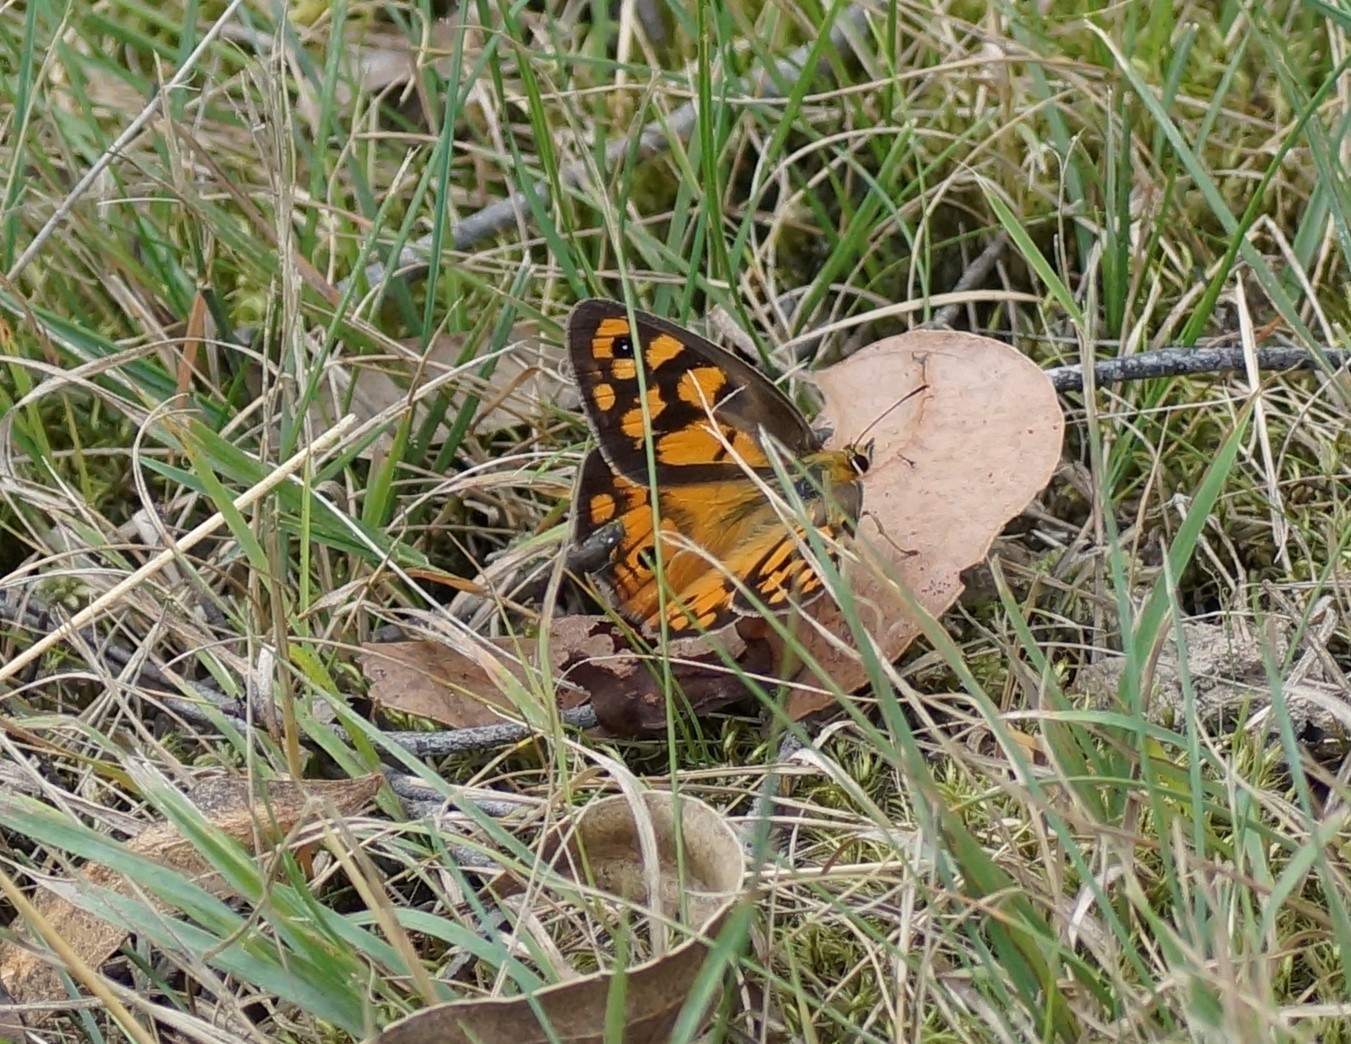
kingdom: Animalia
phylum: Arthropoda
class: Insecta
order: Lepidoptera
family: Nymphalidae
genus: Heteronympha
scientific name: Heteronympha penelope
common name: Shouldered brown
